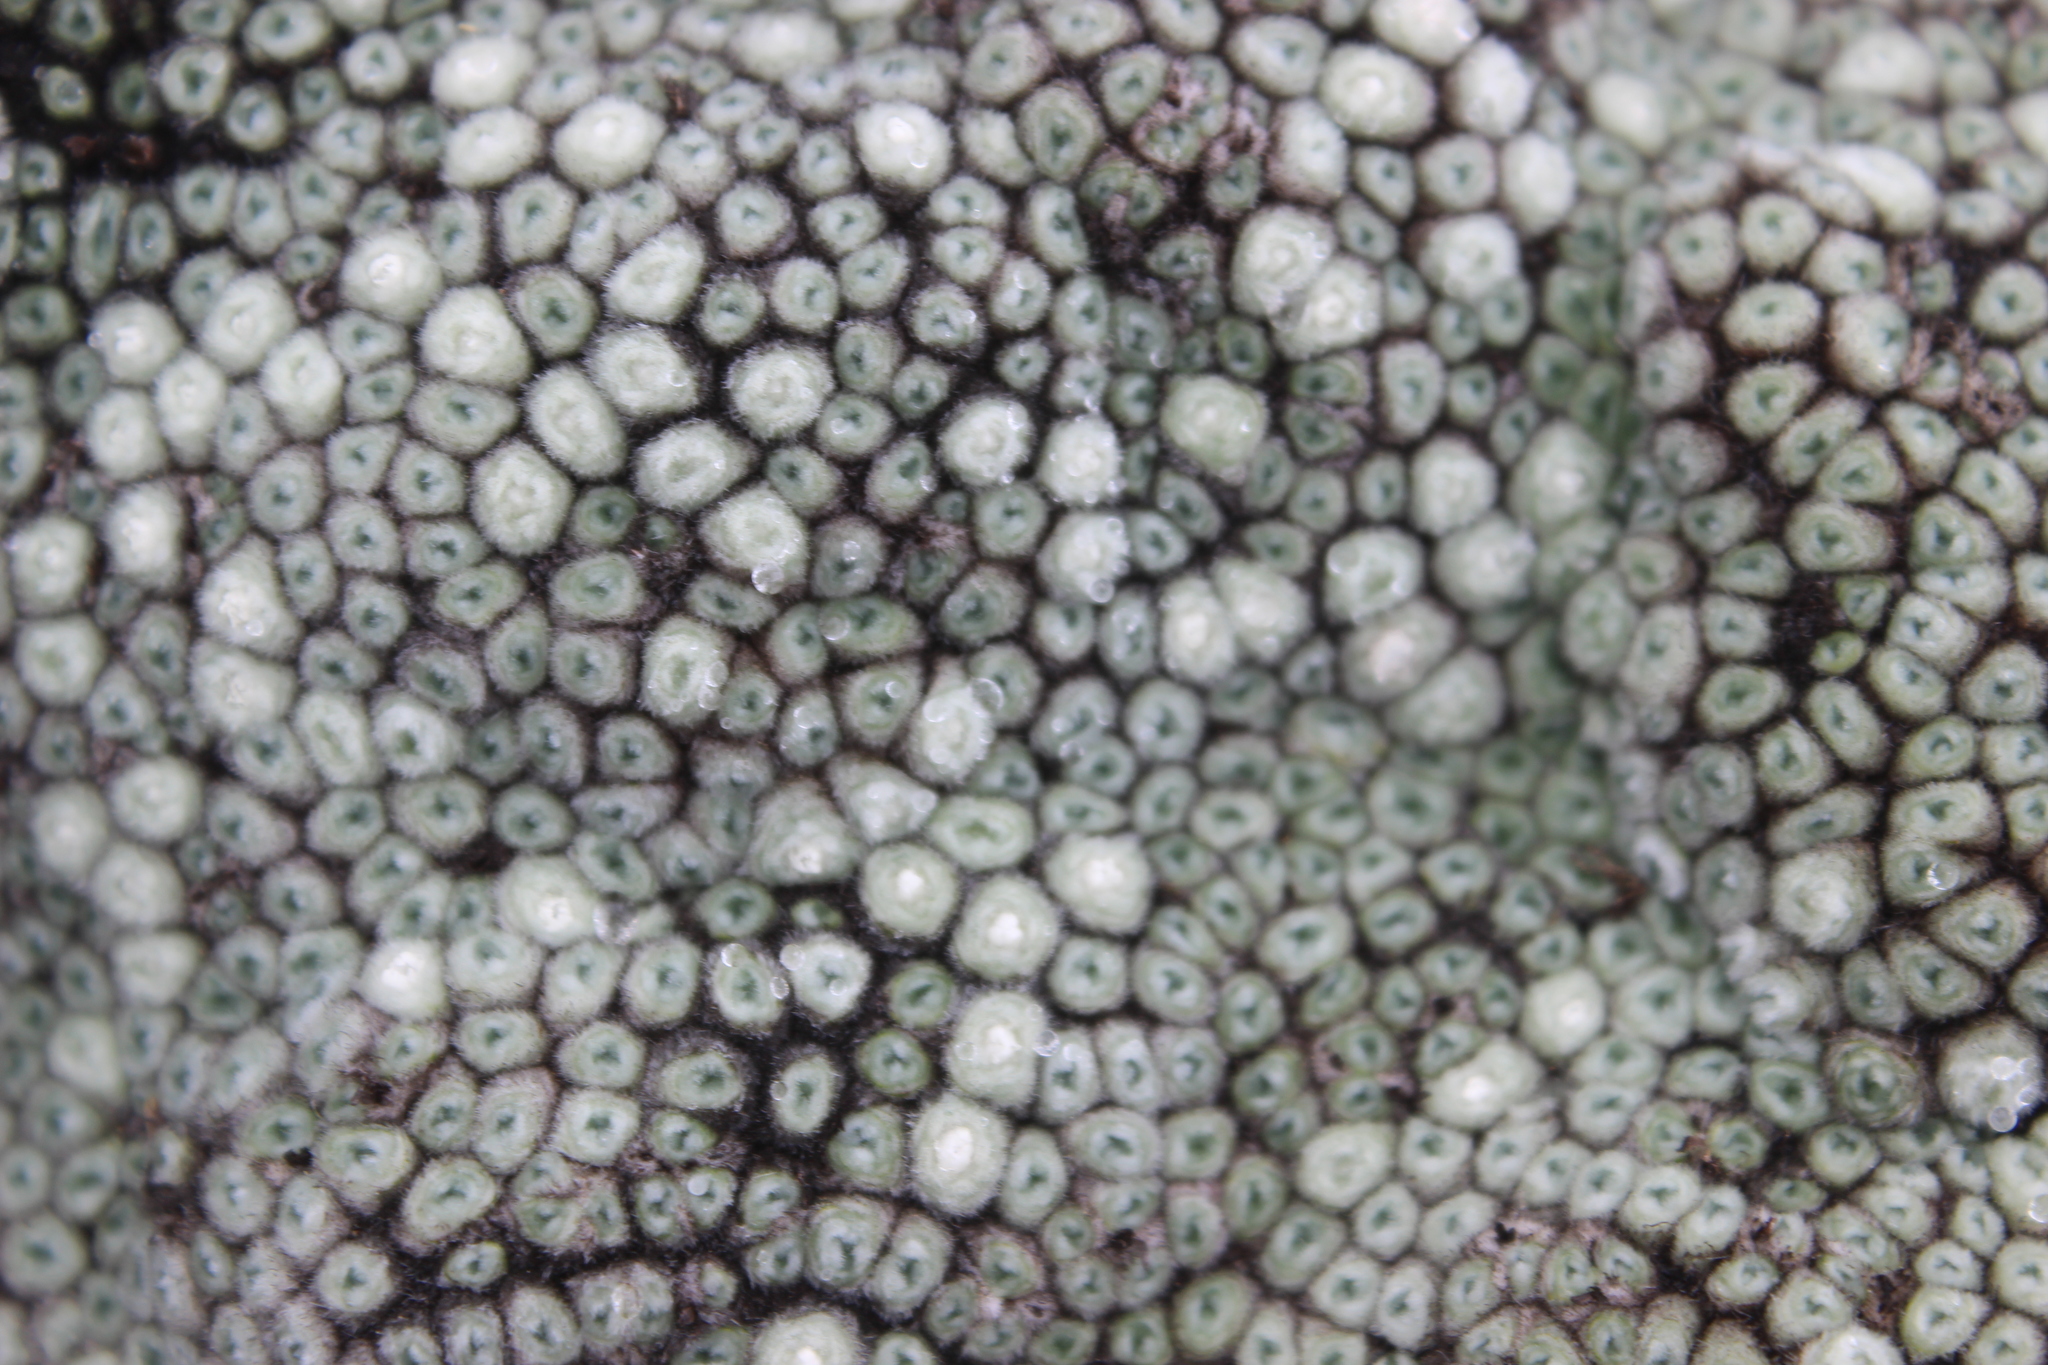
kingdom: Plantae
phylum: Tracheophyta
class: Magnoliopsida
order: Asterales
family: Asteraceae
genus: Raoulia
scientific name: Raoulia rubra
